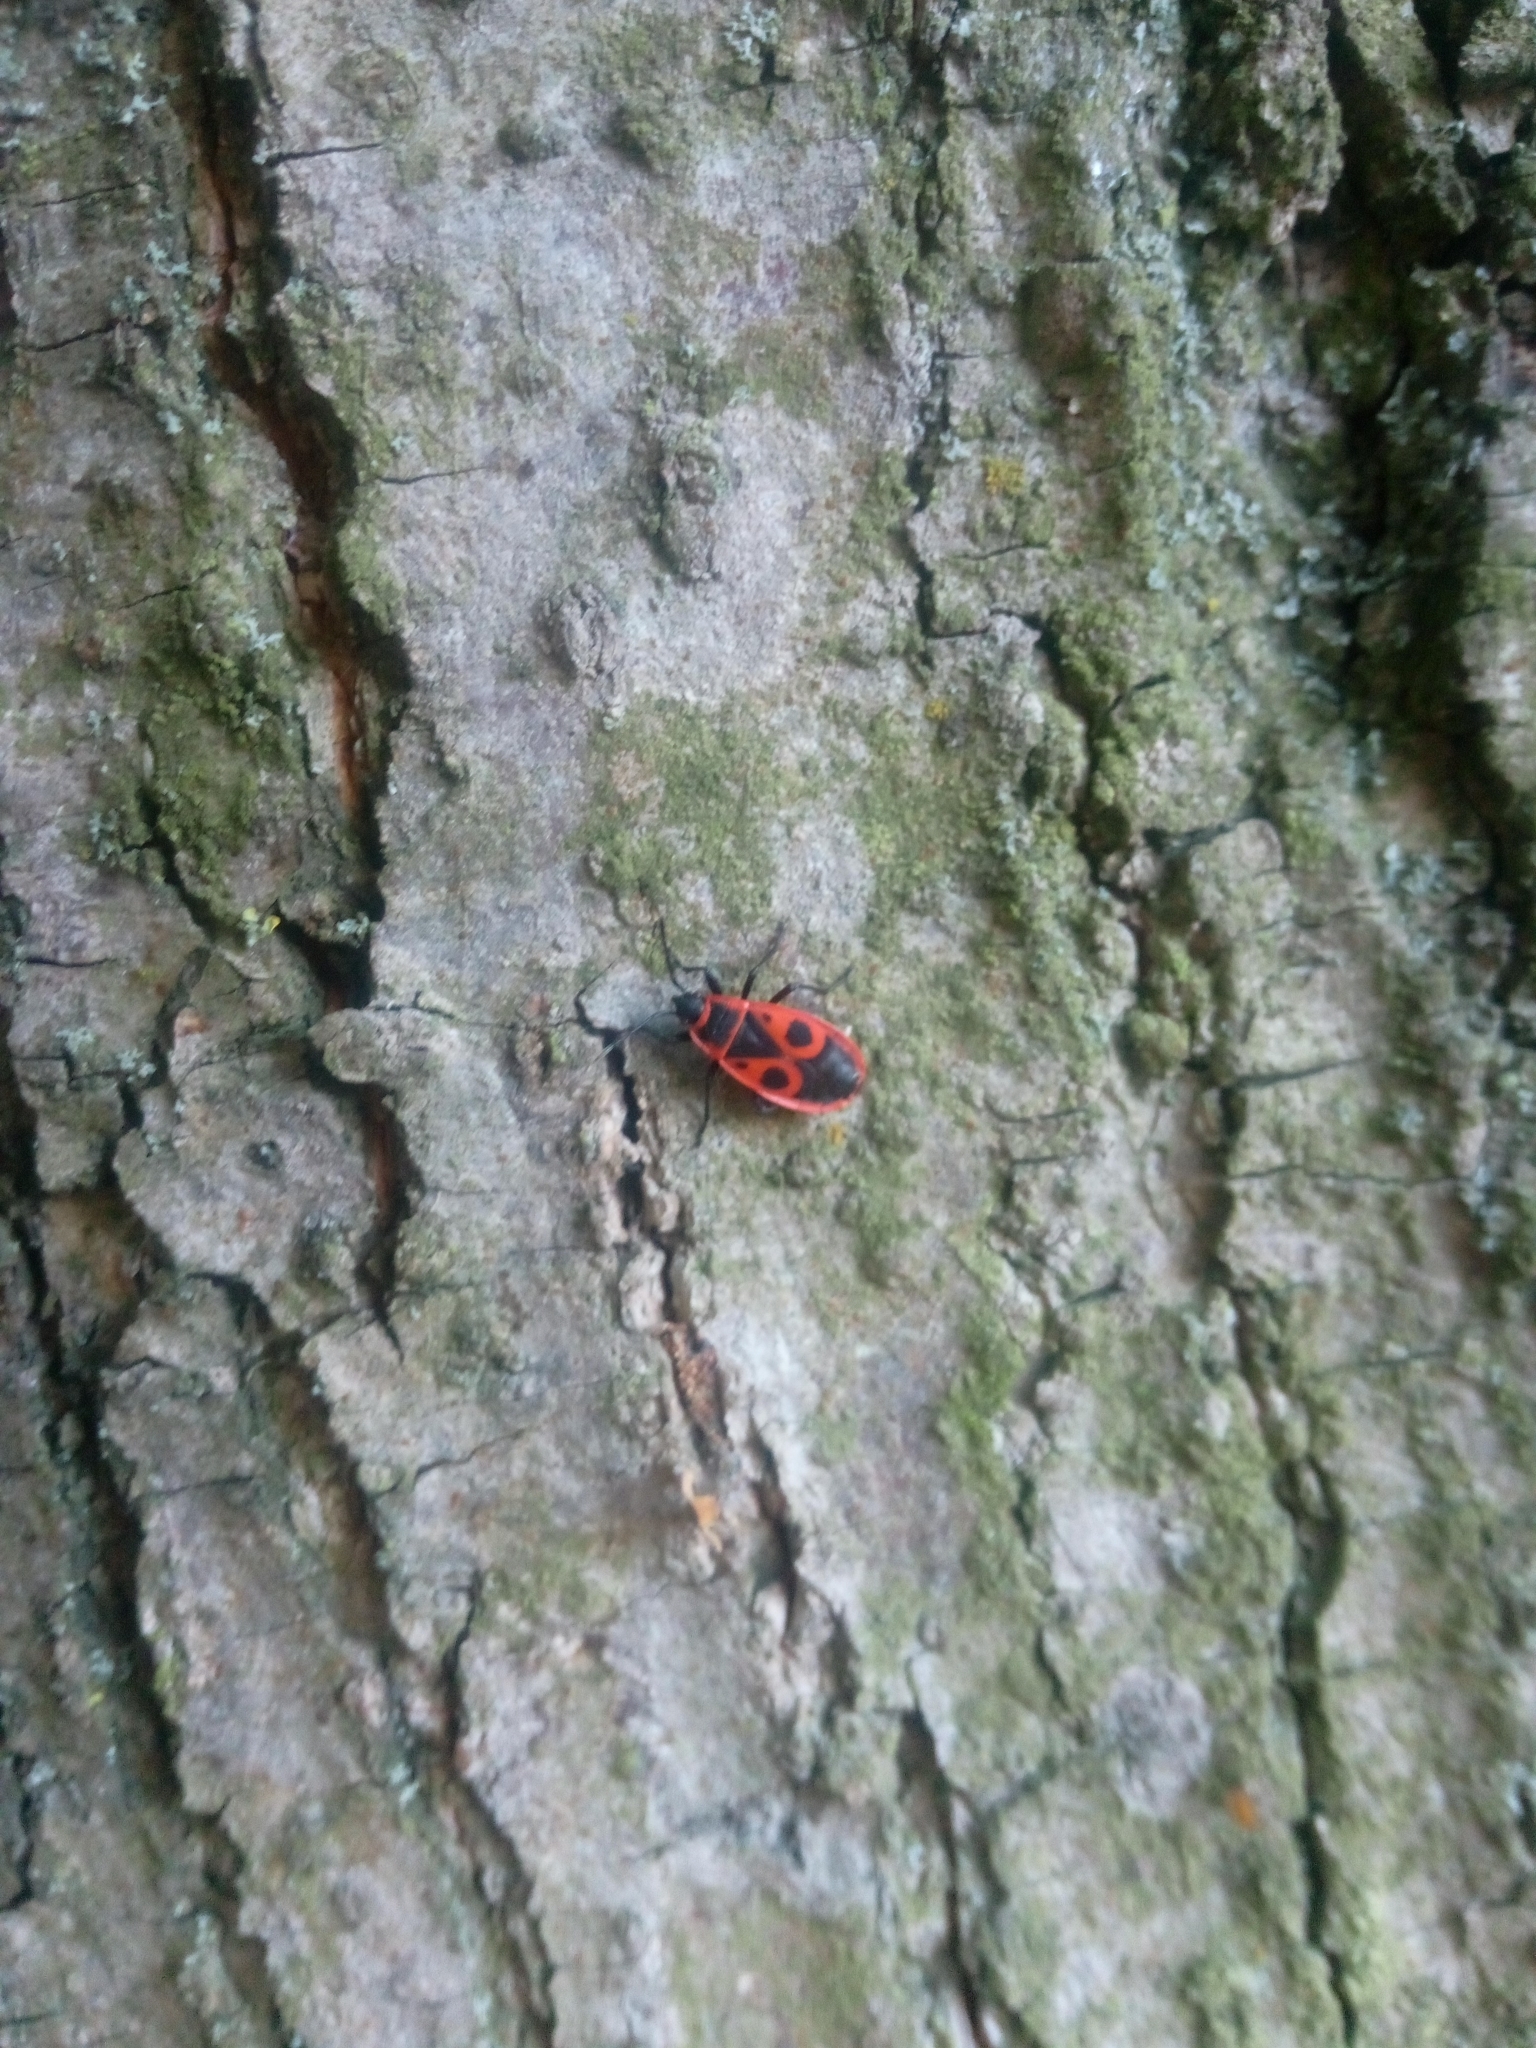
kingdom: Animalia
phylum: Arthropoda
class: Insecta
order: Hemiptera
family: Pyrrhocoridae
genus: Pyrrhocoris
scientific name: Pyrrhocoris apterus
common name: Firebug
